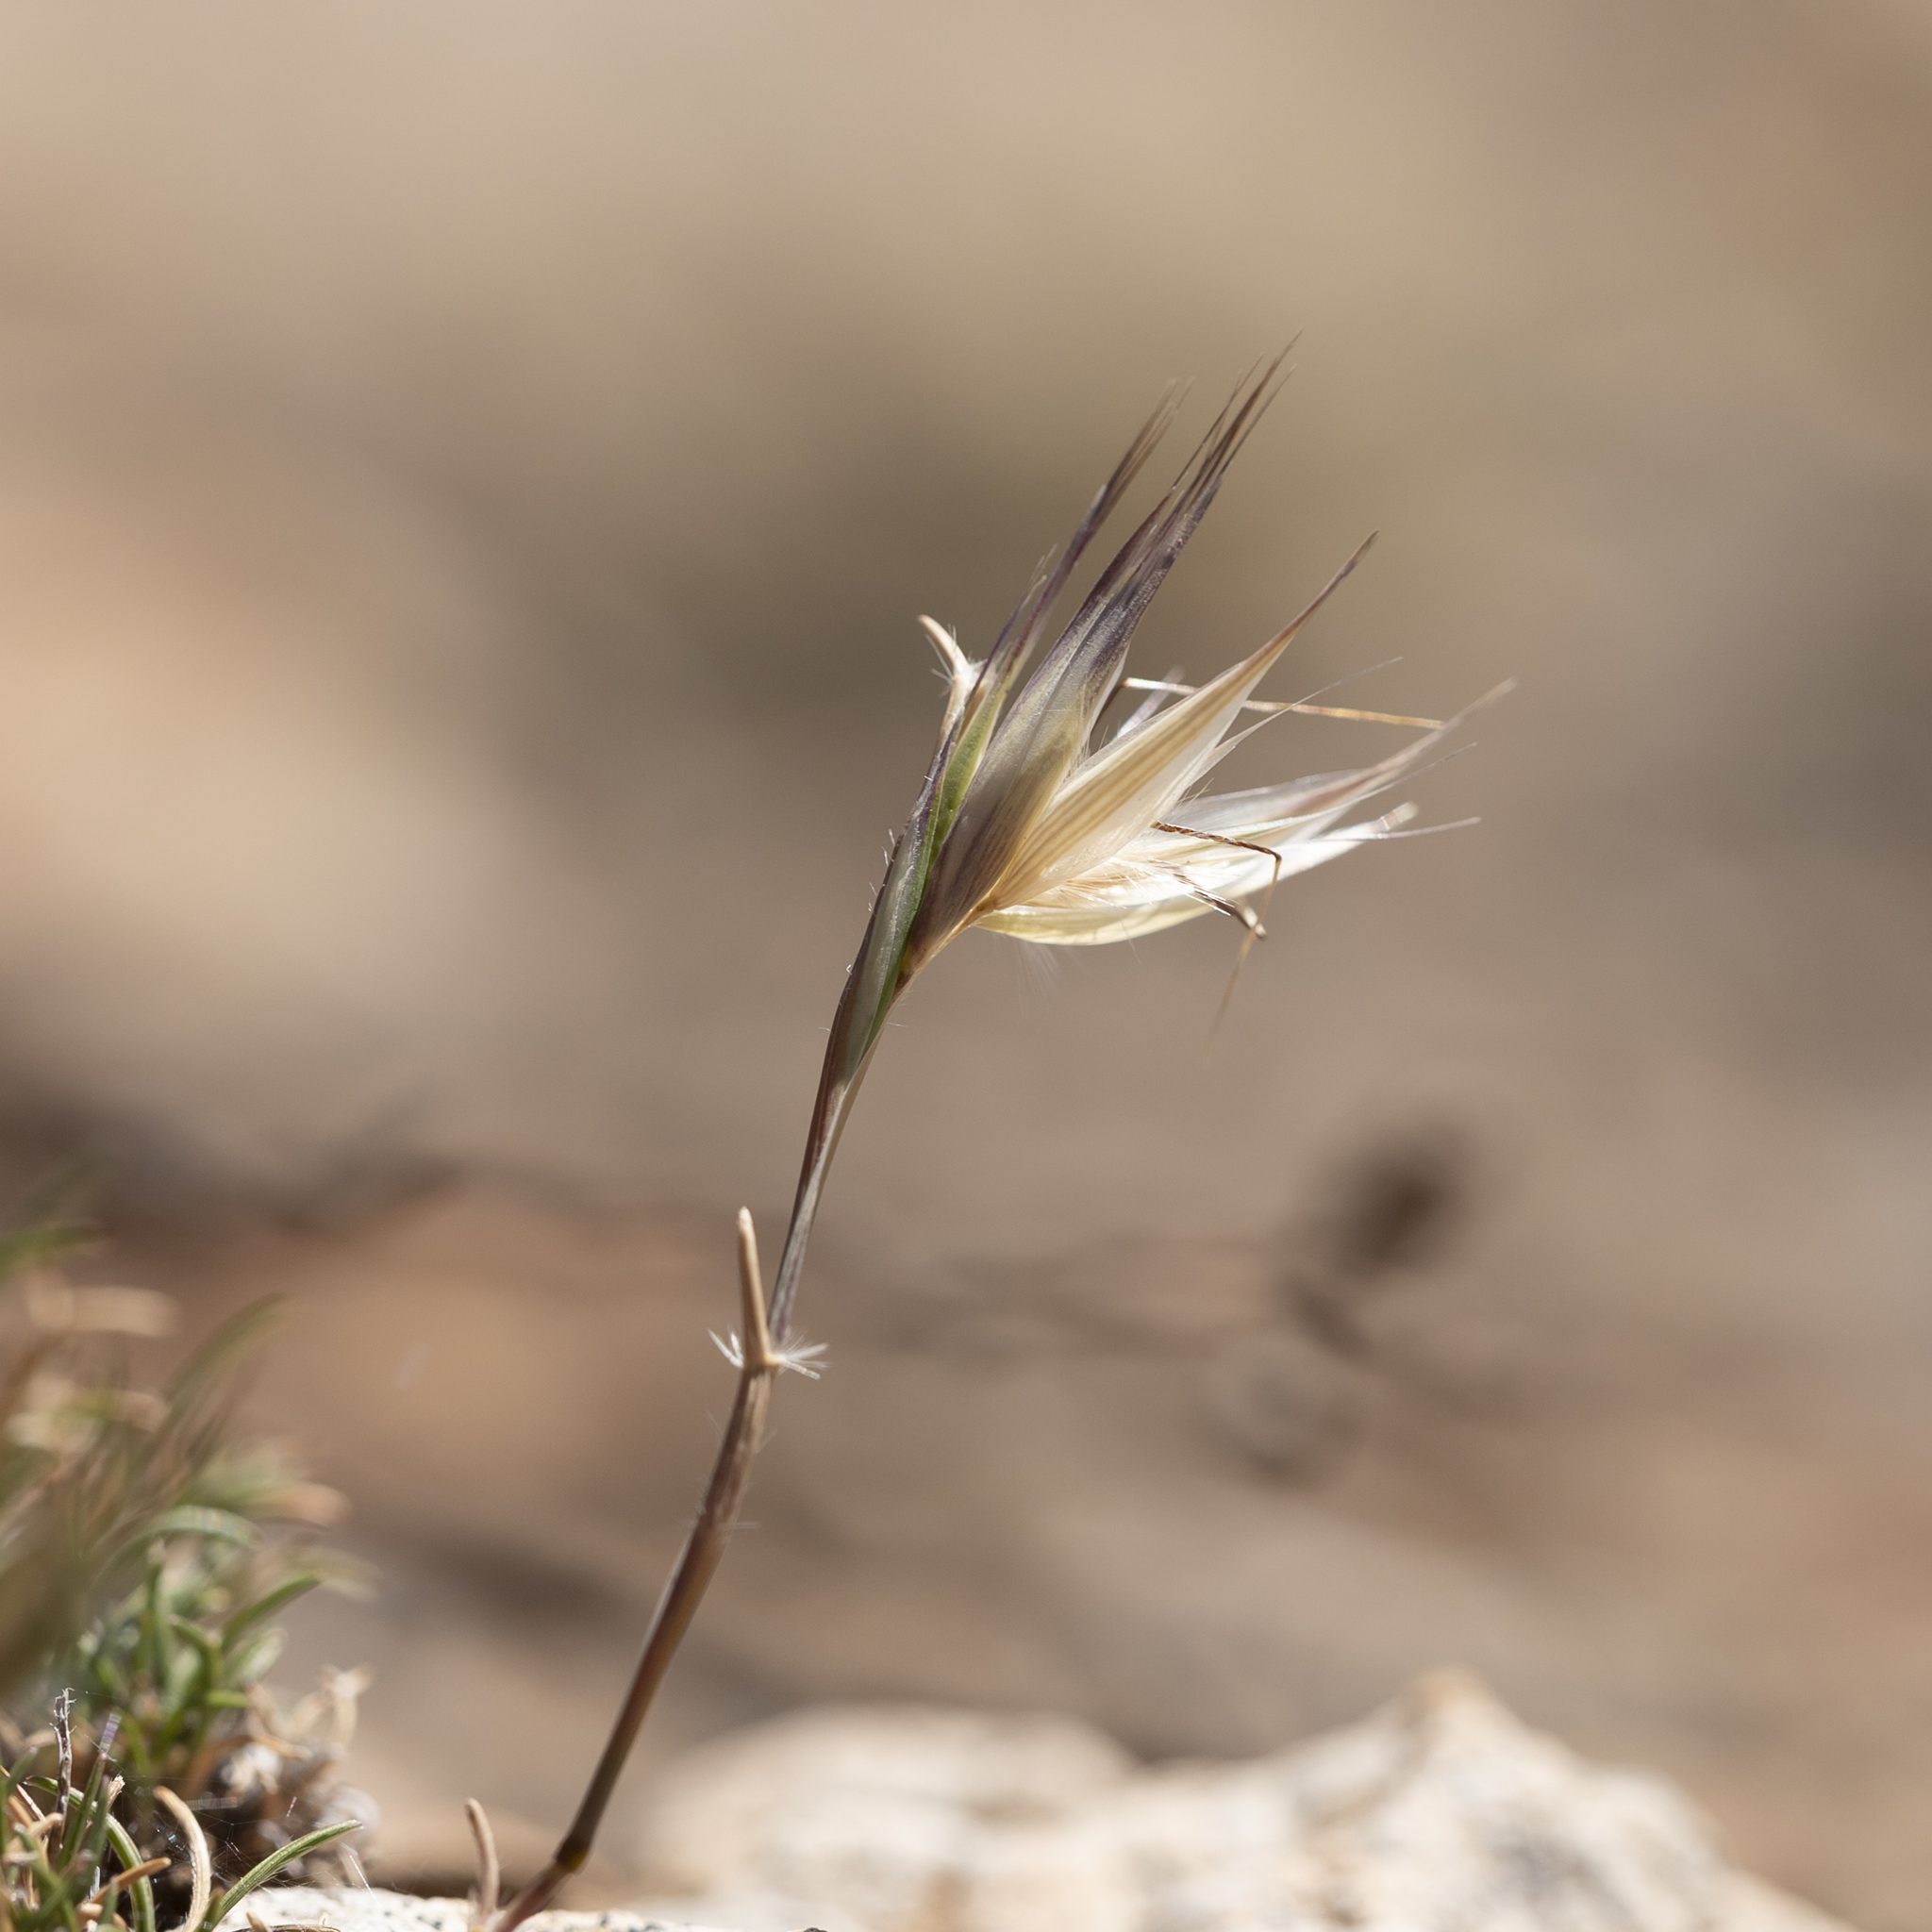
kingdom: Plantae
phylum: Tracheophyta
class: Liliopsida
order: Poales
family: Poaceae
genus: Rytidosperma
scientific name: Rytidosperma caespitosum
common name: Tufted wallaby grass
